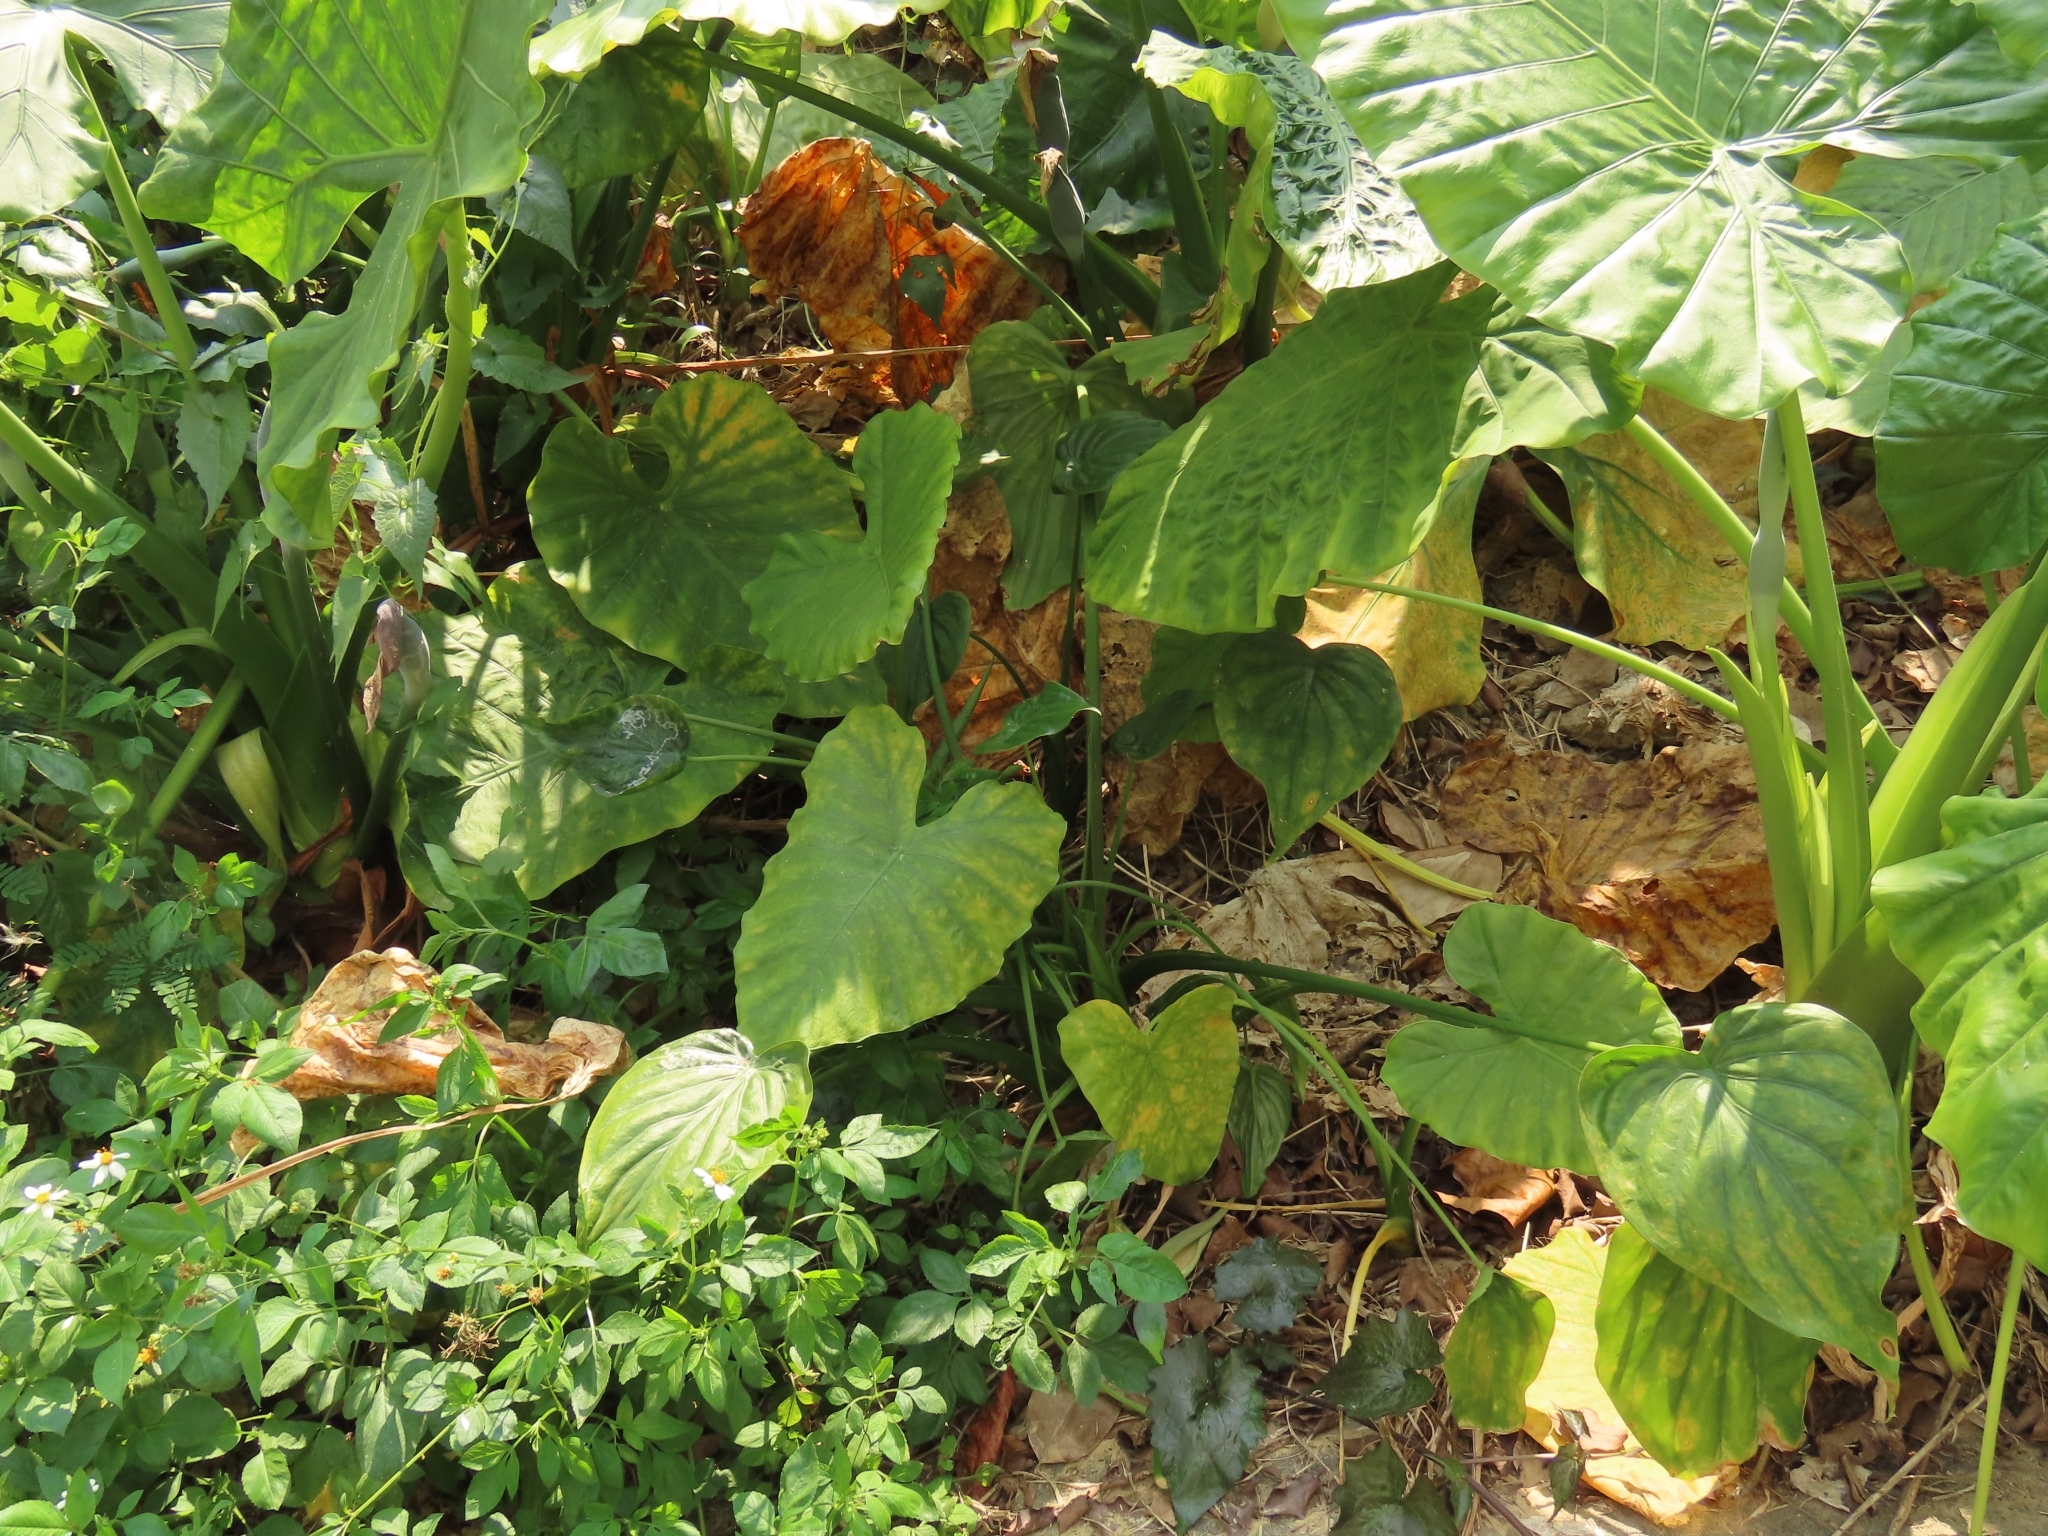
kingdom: Plantae
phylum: Tracheophyta
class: Liliopsida
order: Alismatales
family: Araceae
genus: Alocasia
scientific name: Alocasia cucullata
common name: Buddha's hand
